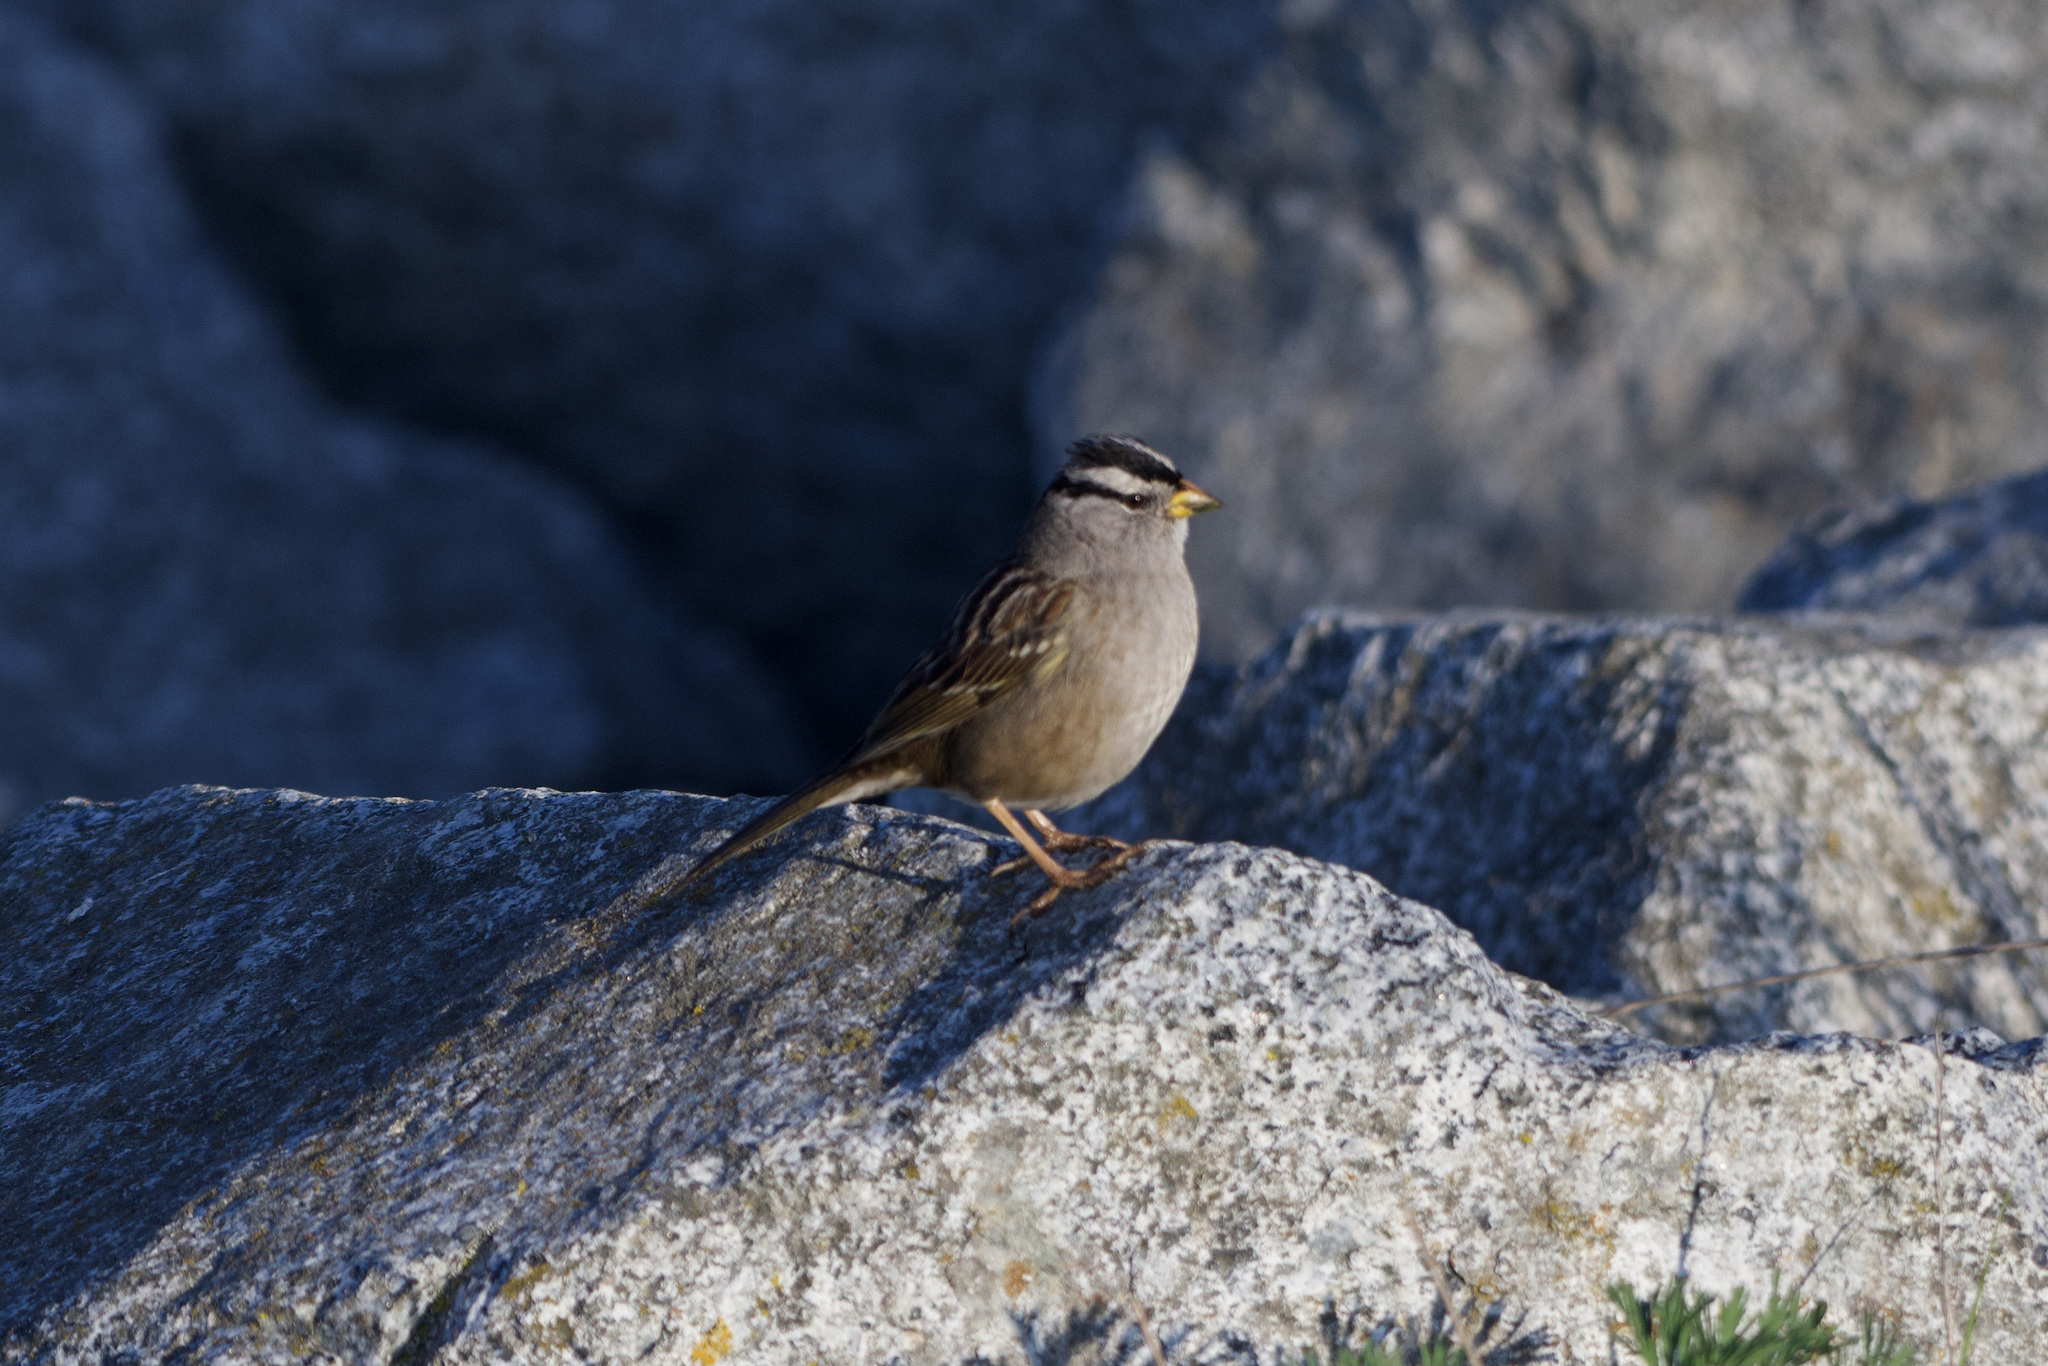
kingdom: Animalia
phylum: Chordata
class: Aves
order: Passeriformes
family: Passerellidae
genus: Zonotrichia
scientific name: Zonotrichia leucophrys
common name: White-crowned sparrow
